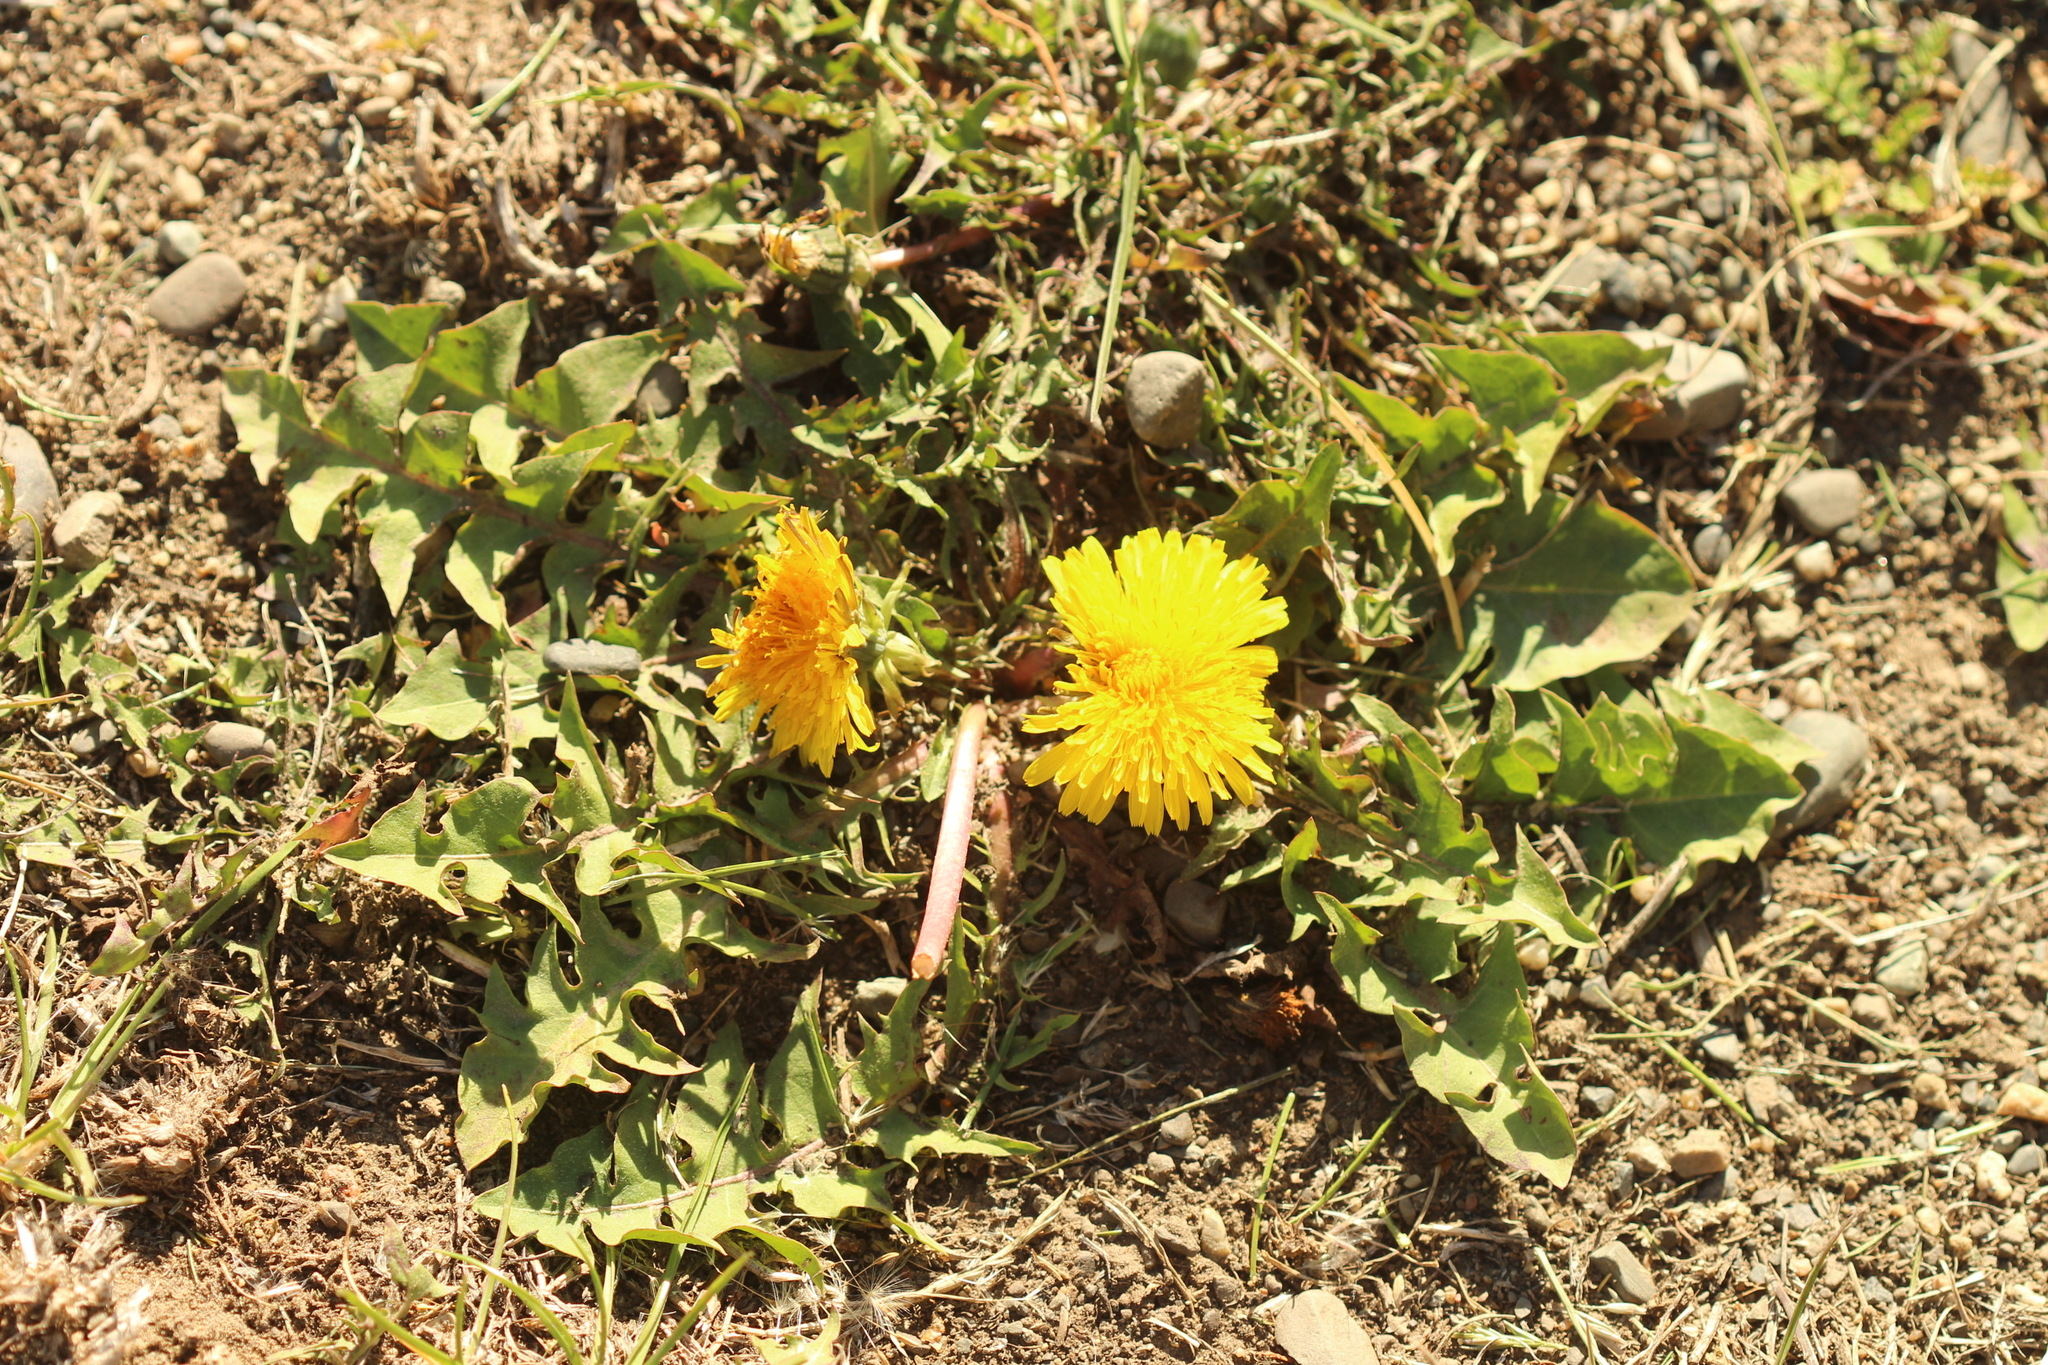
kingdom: Plantae
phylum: Tracheophyta
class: Magnoliopsida
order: Asterales
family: Asteraceae
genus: Taraxacum
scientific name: Taraxacum officinale
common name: Common dandelion
